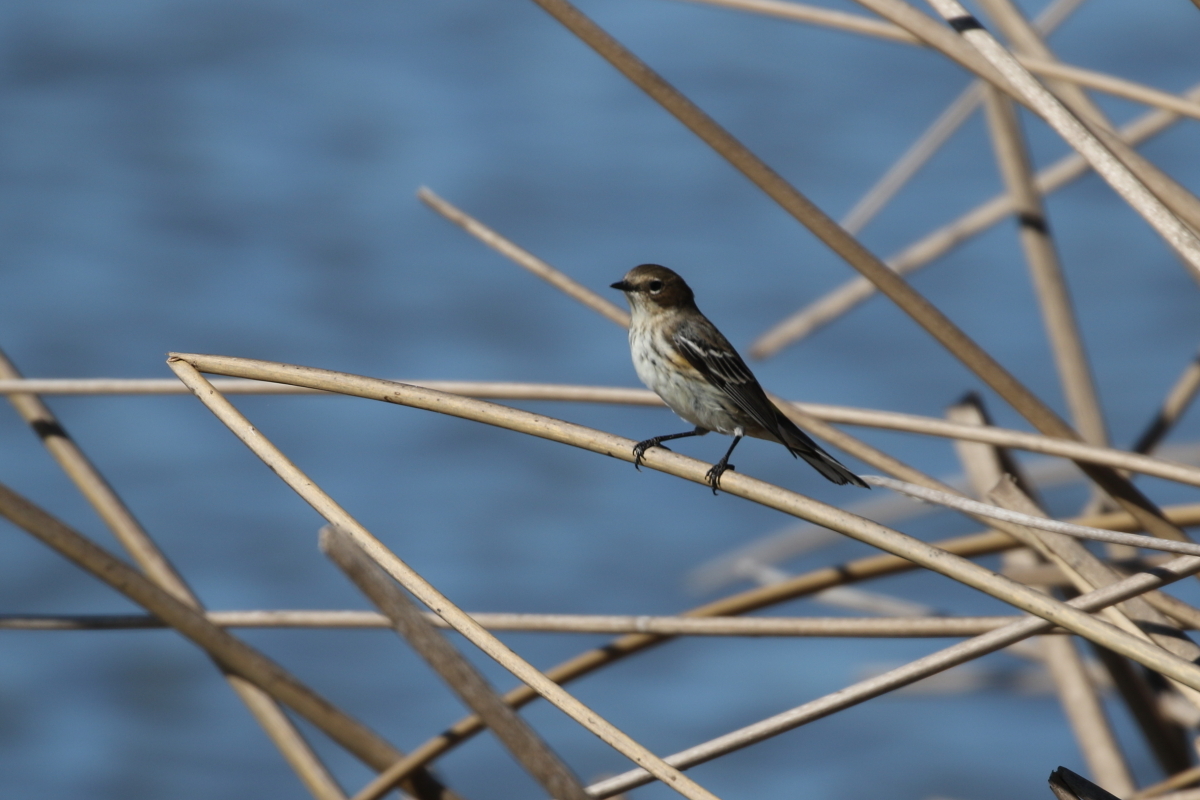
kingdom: Animalia
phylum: Chordata
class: Aves
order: Passeriformes
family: Parulidae
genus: Setophaga
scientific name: Setophaga coronata
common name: Myrtle warbler
